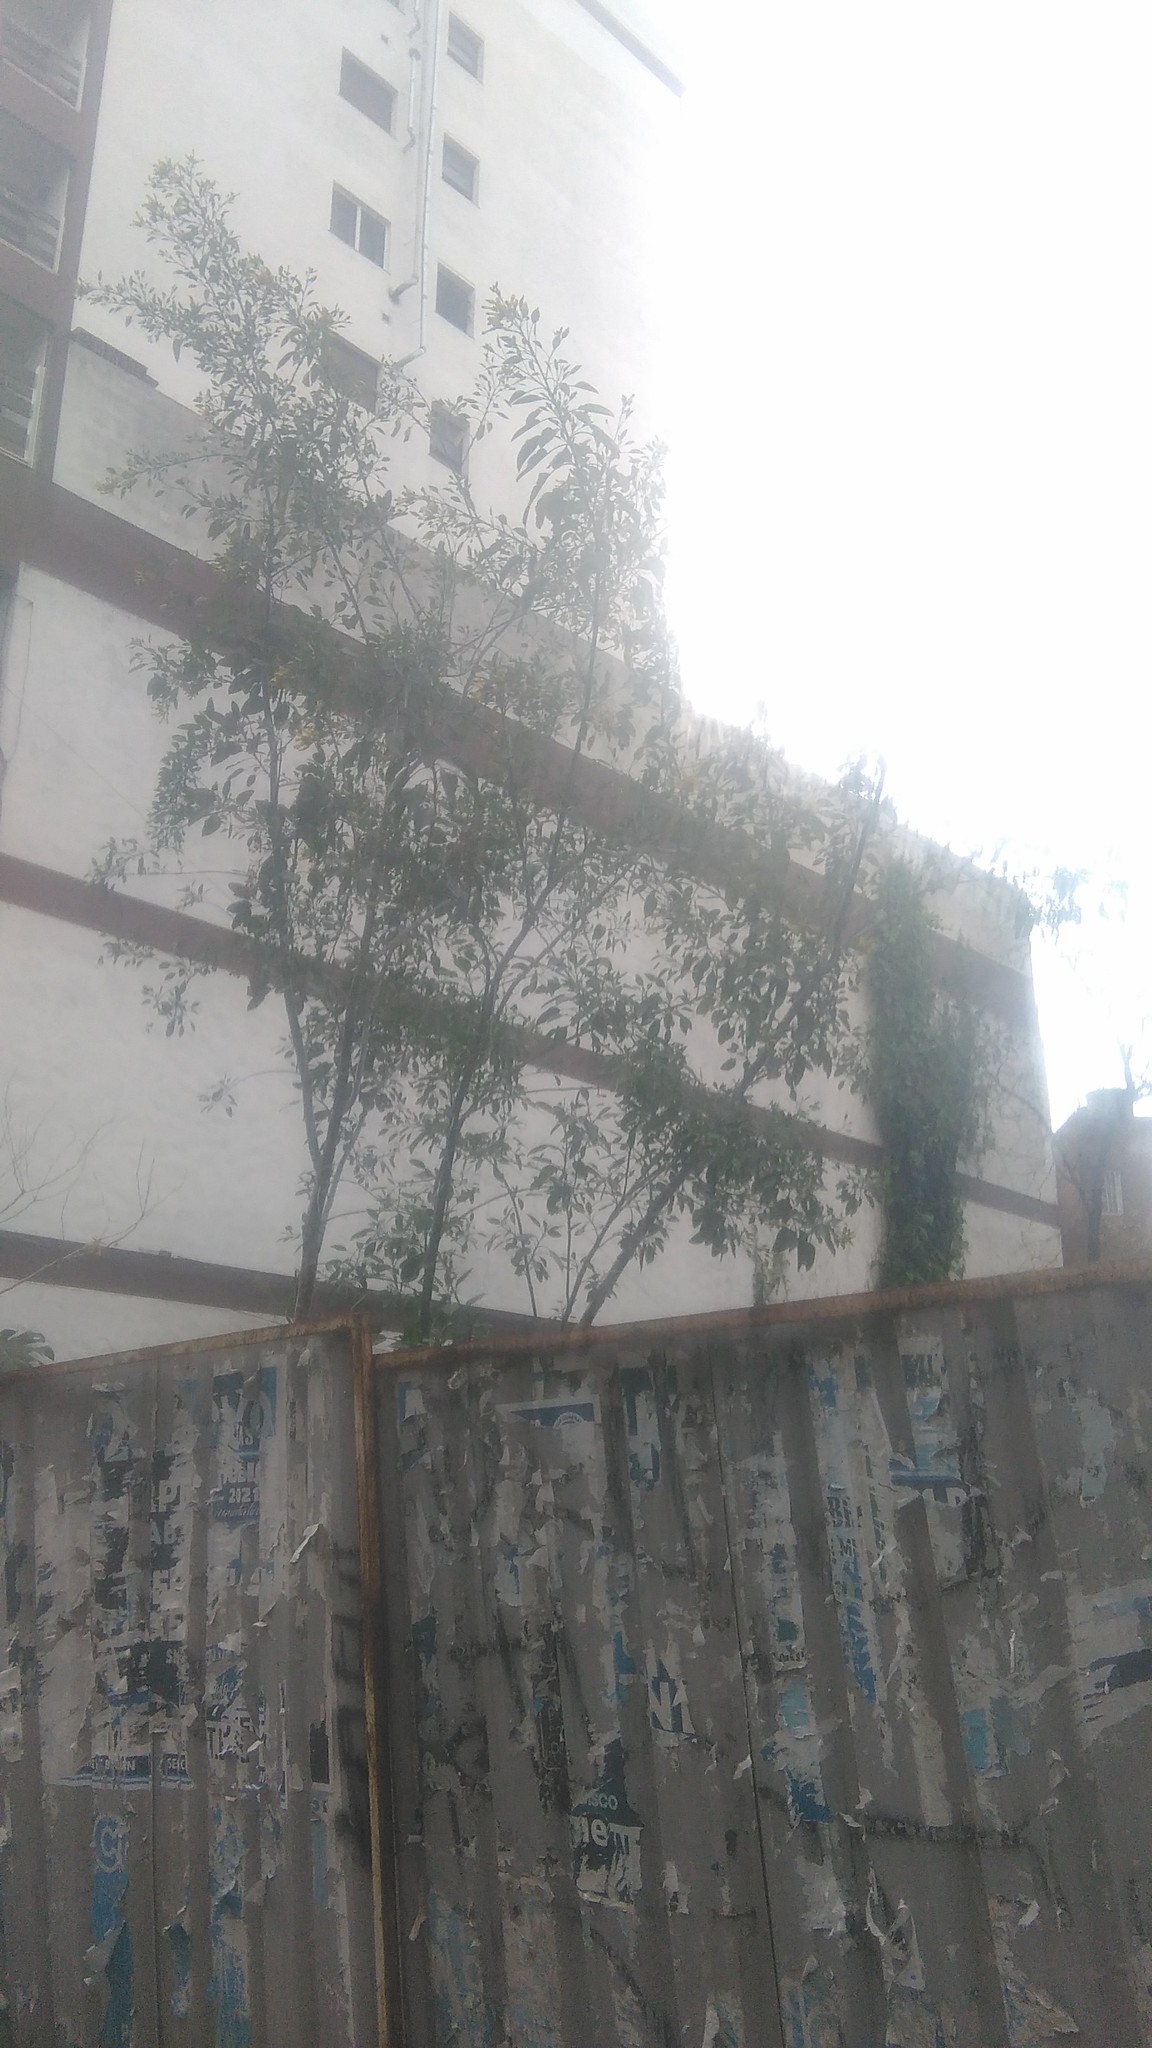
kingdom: Plantae
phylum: Tracheophyta
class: Magnoliopsida
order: Solanales
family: Solanaceae
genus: Nicotiana
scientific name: Nicotiana glauca
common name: Tree tobacco
